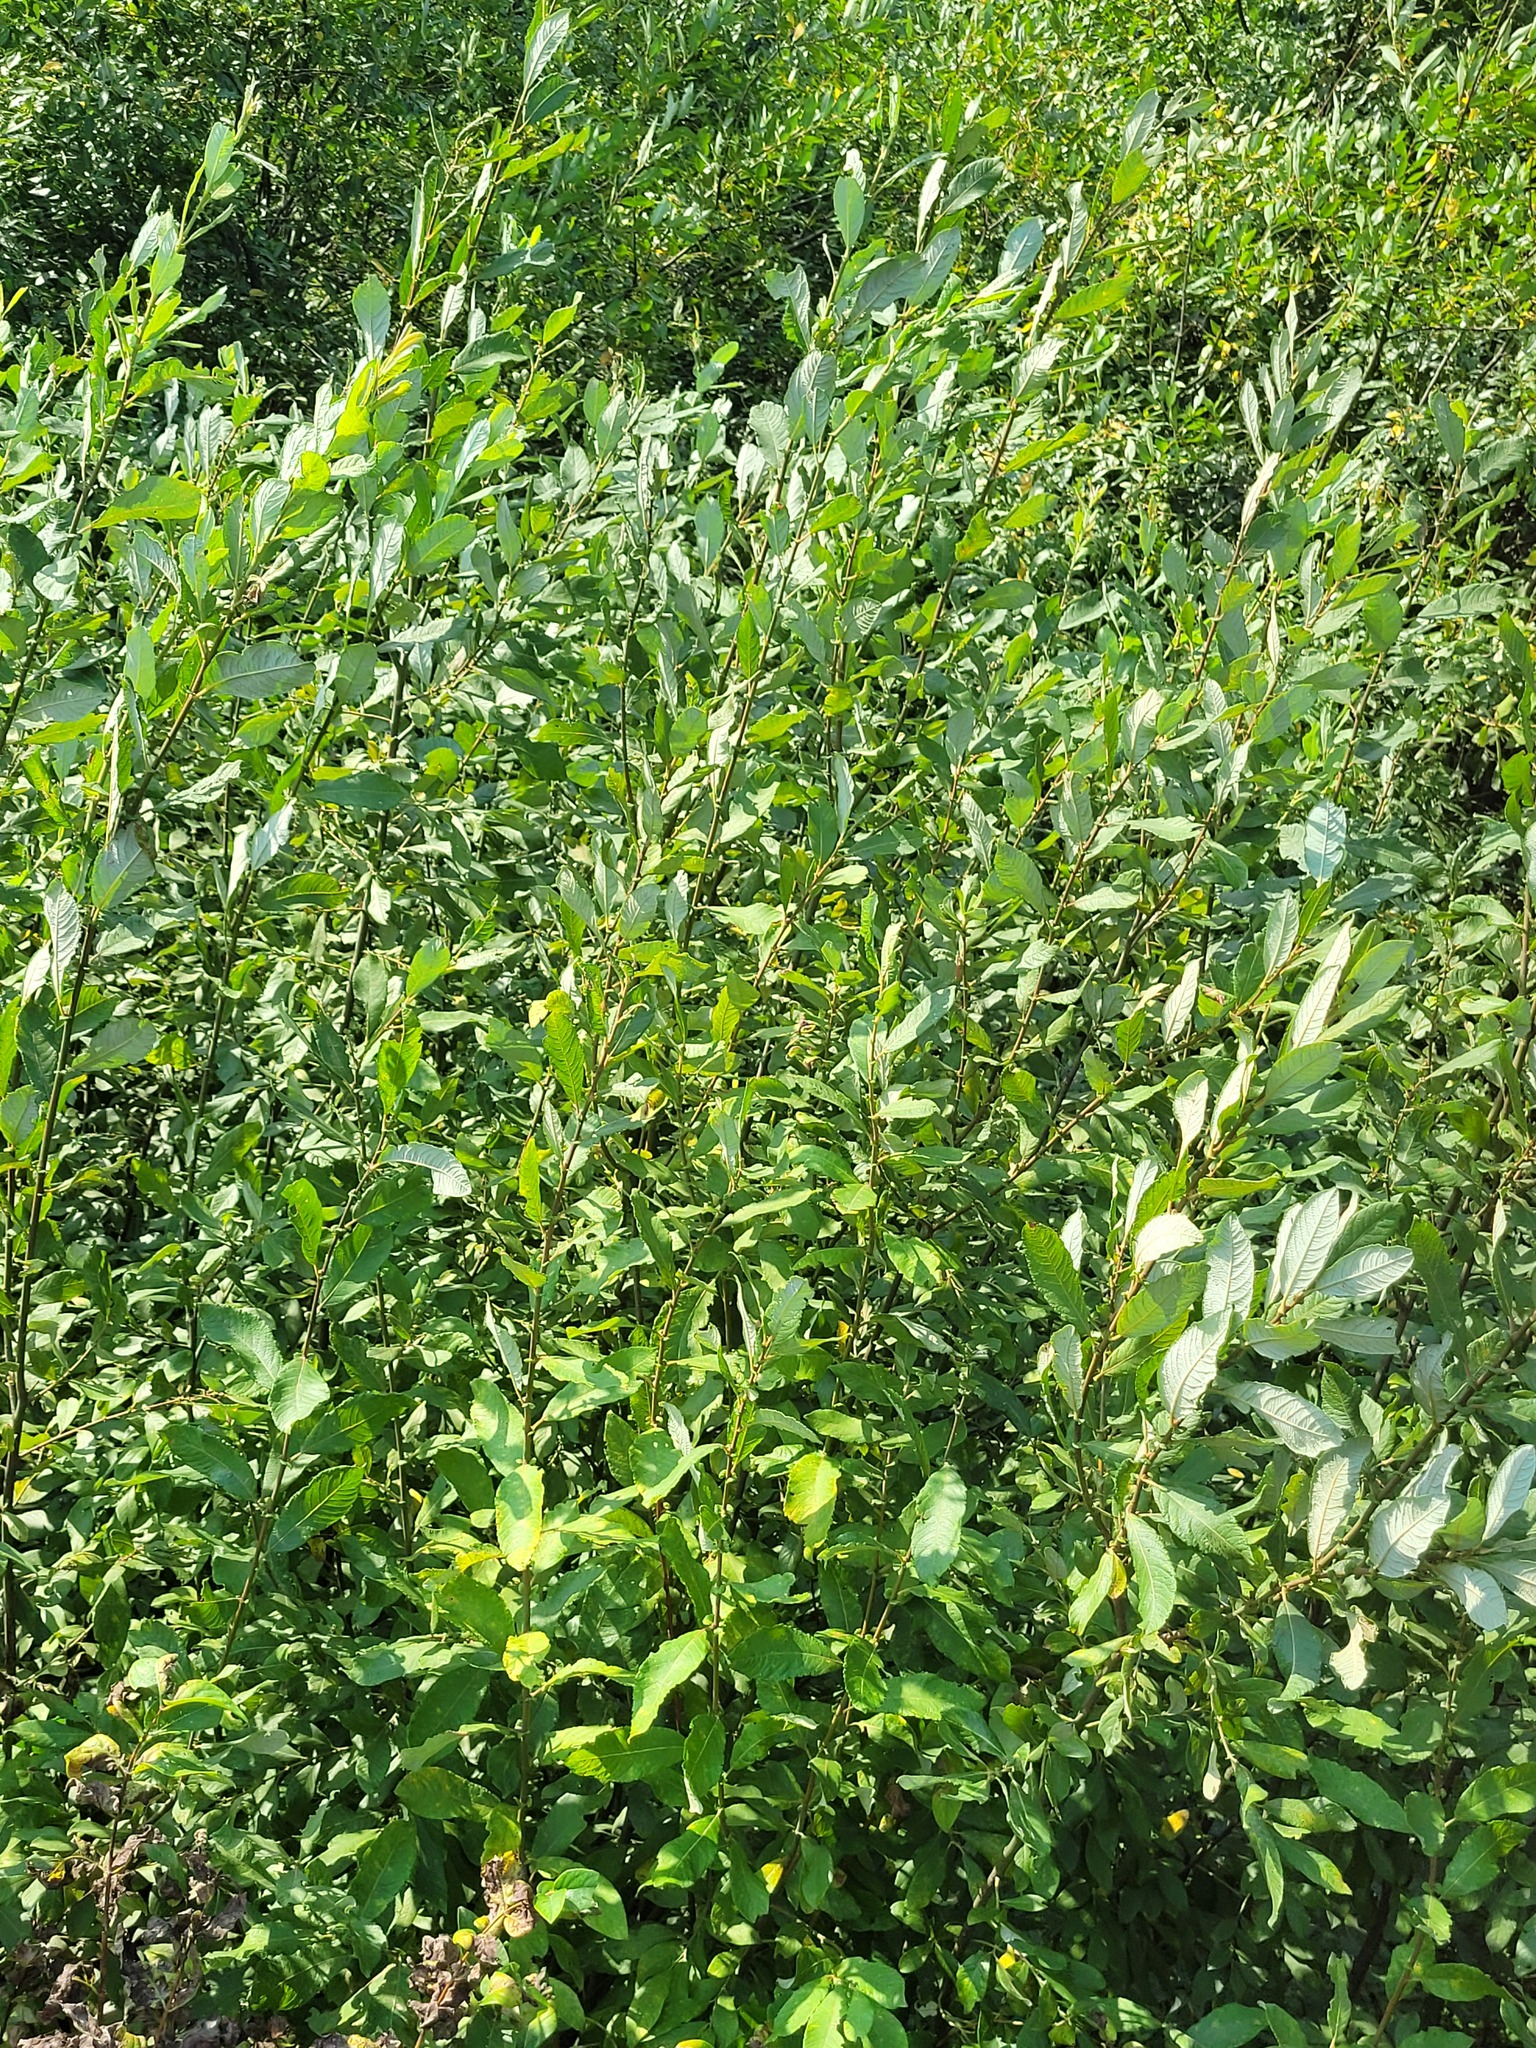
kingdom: Plantae
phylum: Tracheophyta
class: Magnoliopsida
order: Malpighiales
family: Salicaceae
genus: Salix
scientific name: Salix cinerea
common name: Common sallow
